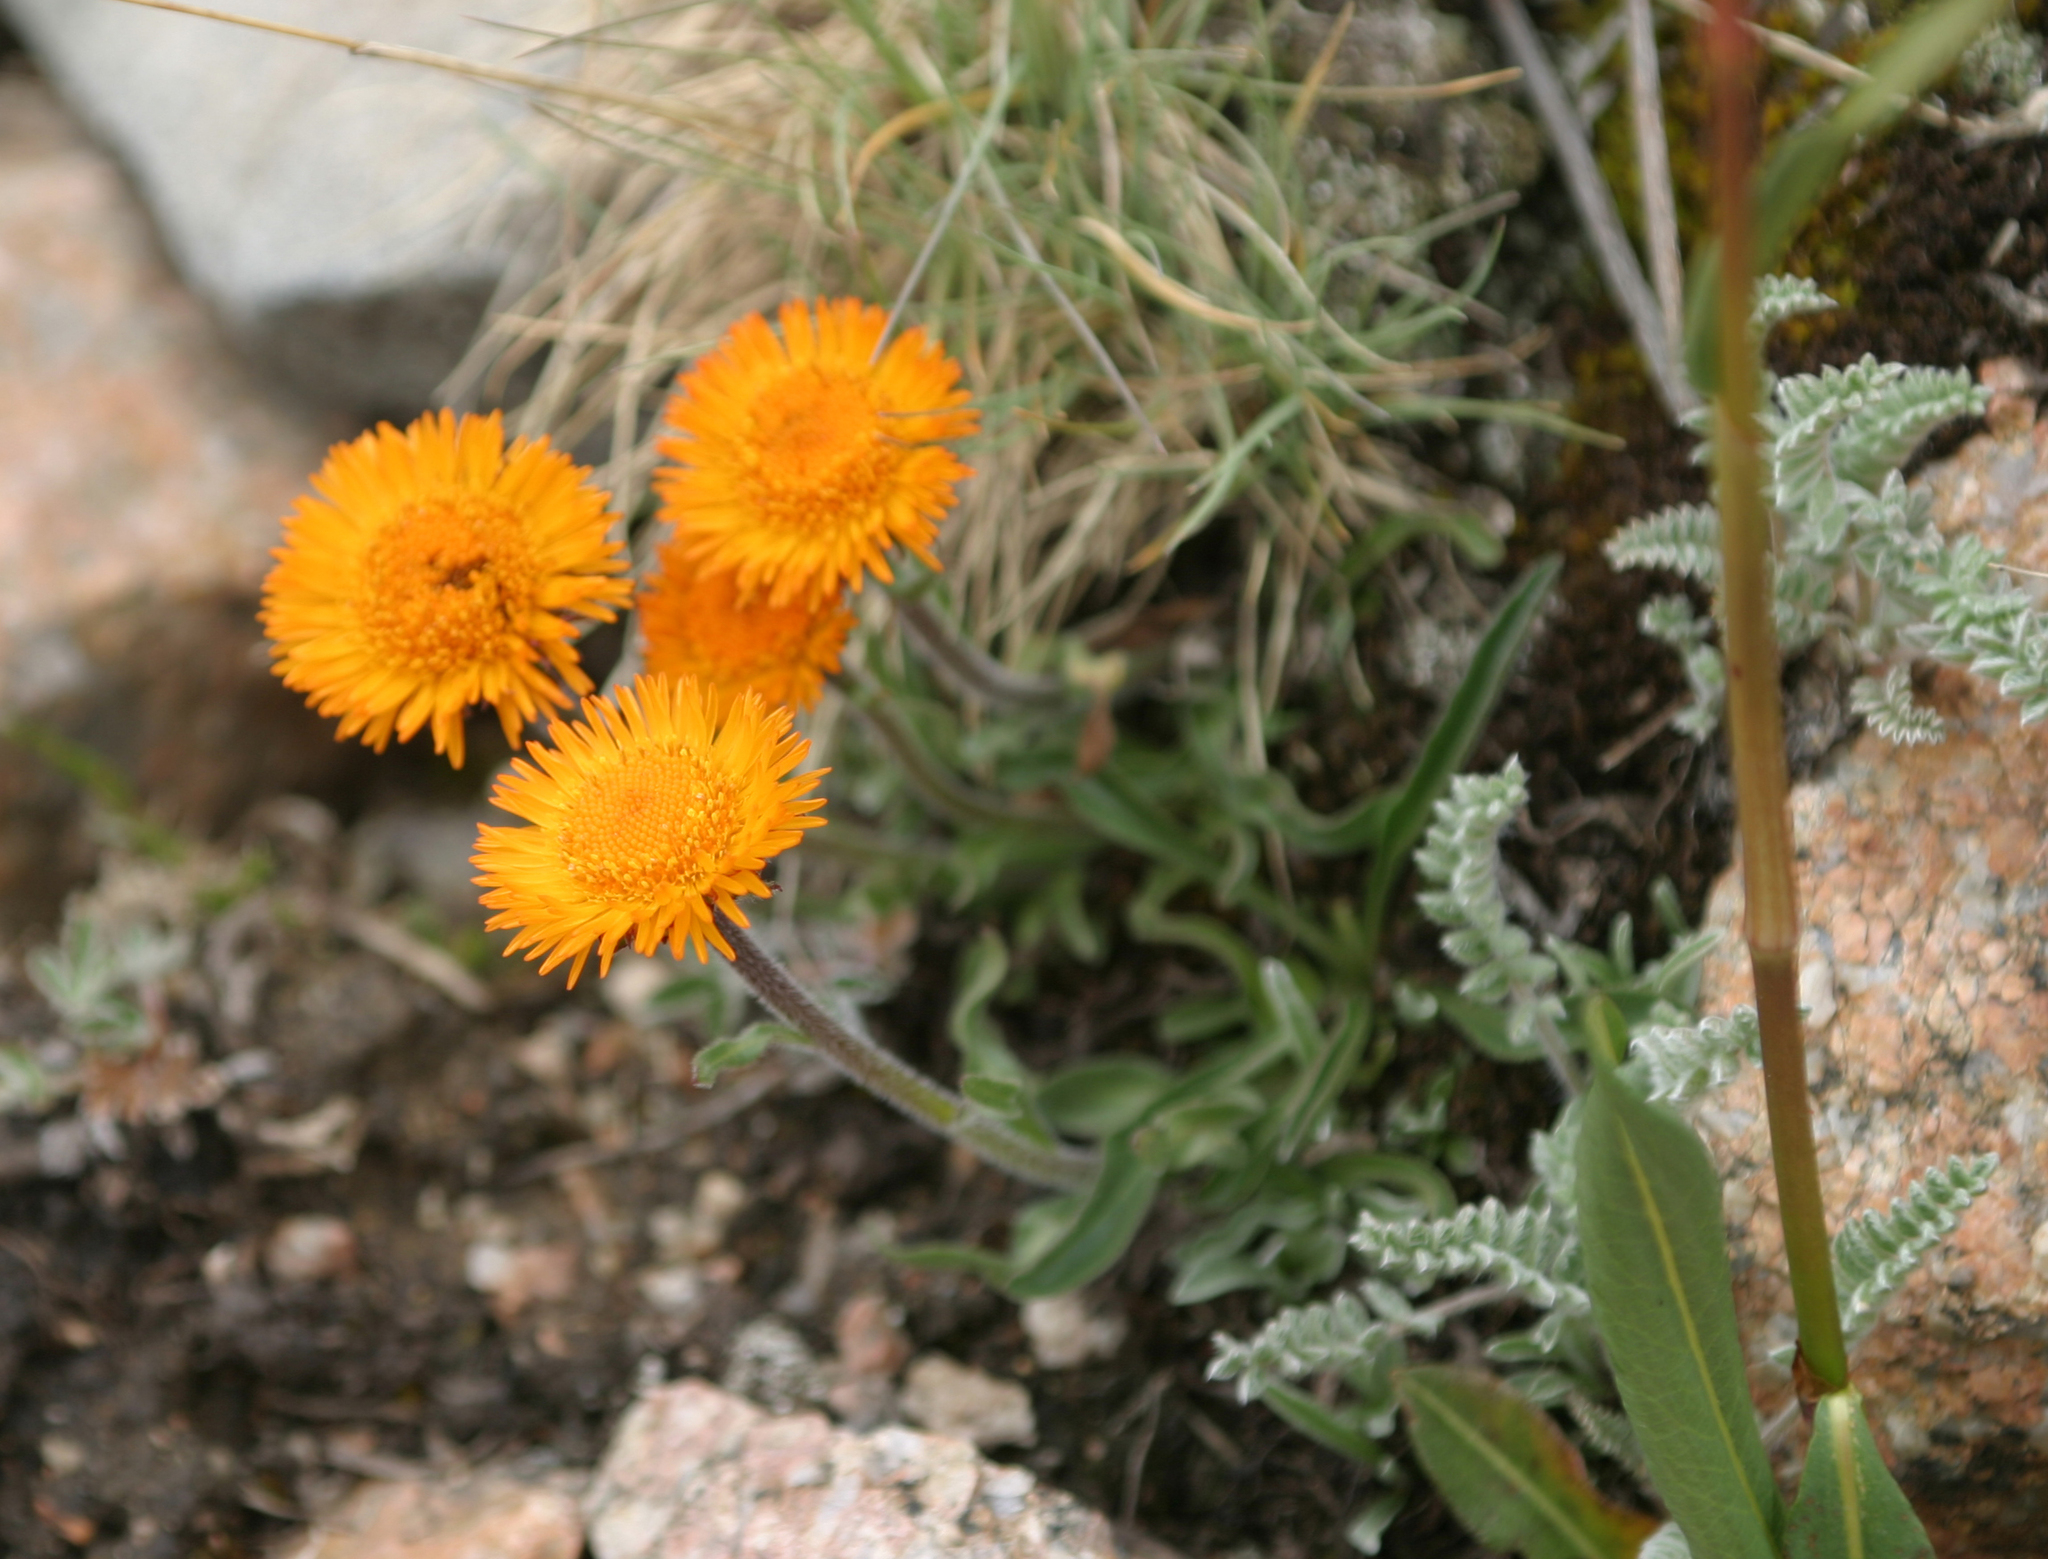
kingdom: Plantae
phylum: Tracheophyta
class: Magnoliopsida
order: Asterales
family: Asteraceae
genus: Erigeron
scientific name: Erigeron aurantiacus
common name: Orange daisy
